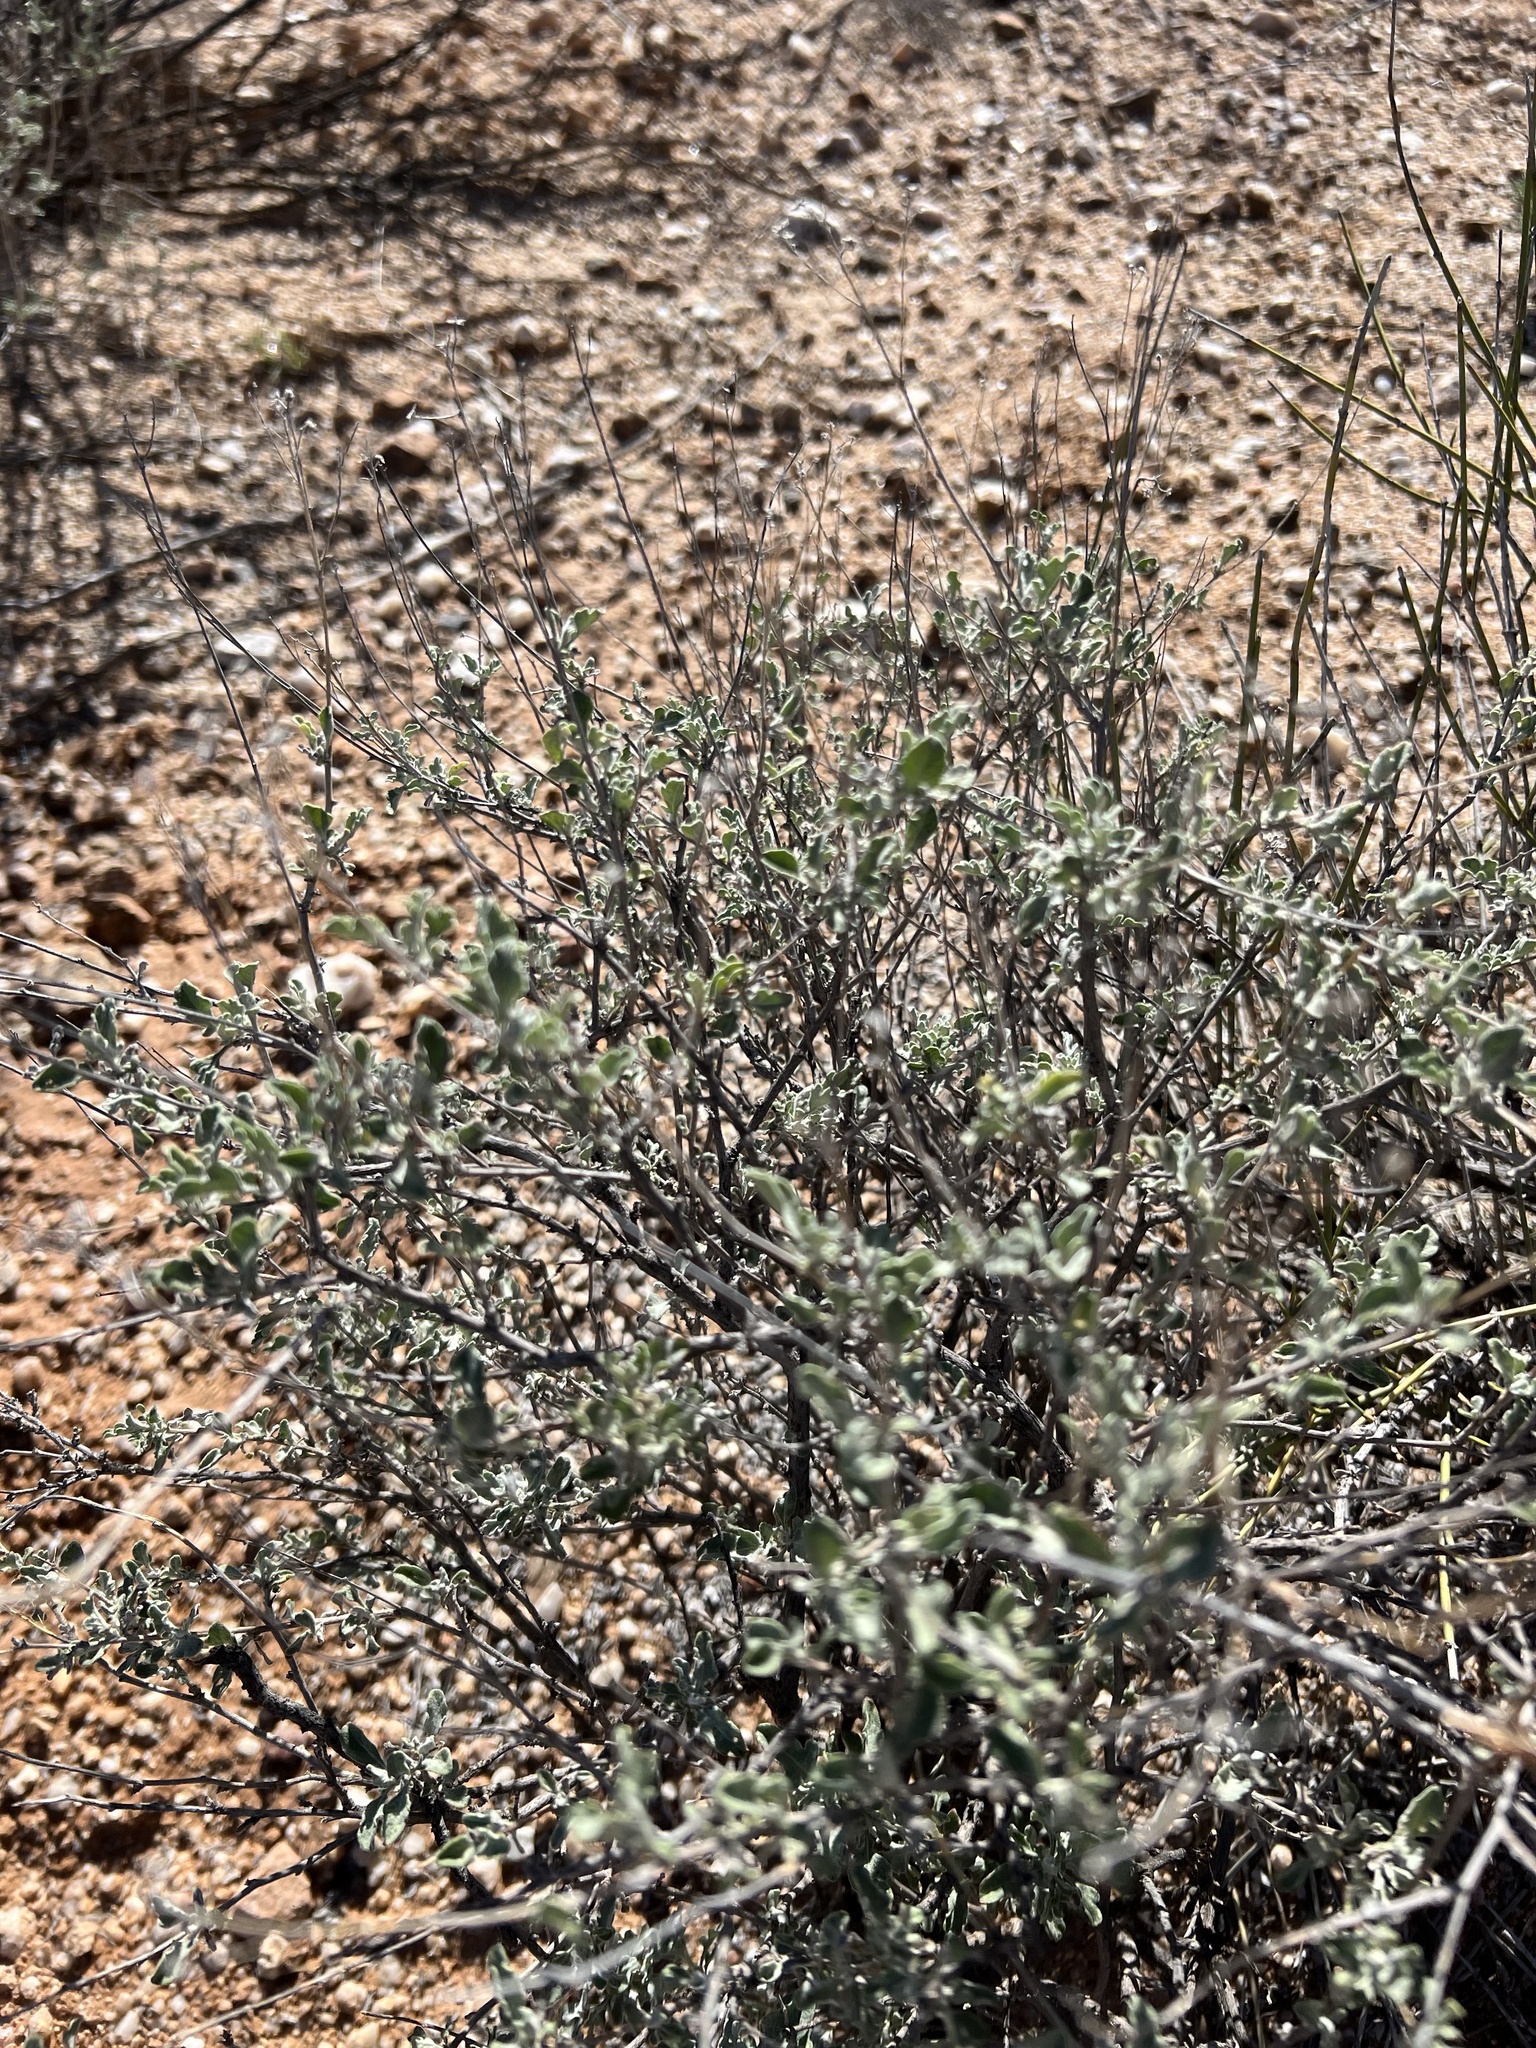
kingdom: Plantae
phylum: Tracheophyta
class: Magnoliopsida
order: Asterales
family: Asteraceae
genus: Parthenium
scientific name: Parthenium incanum
